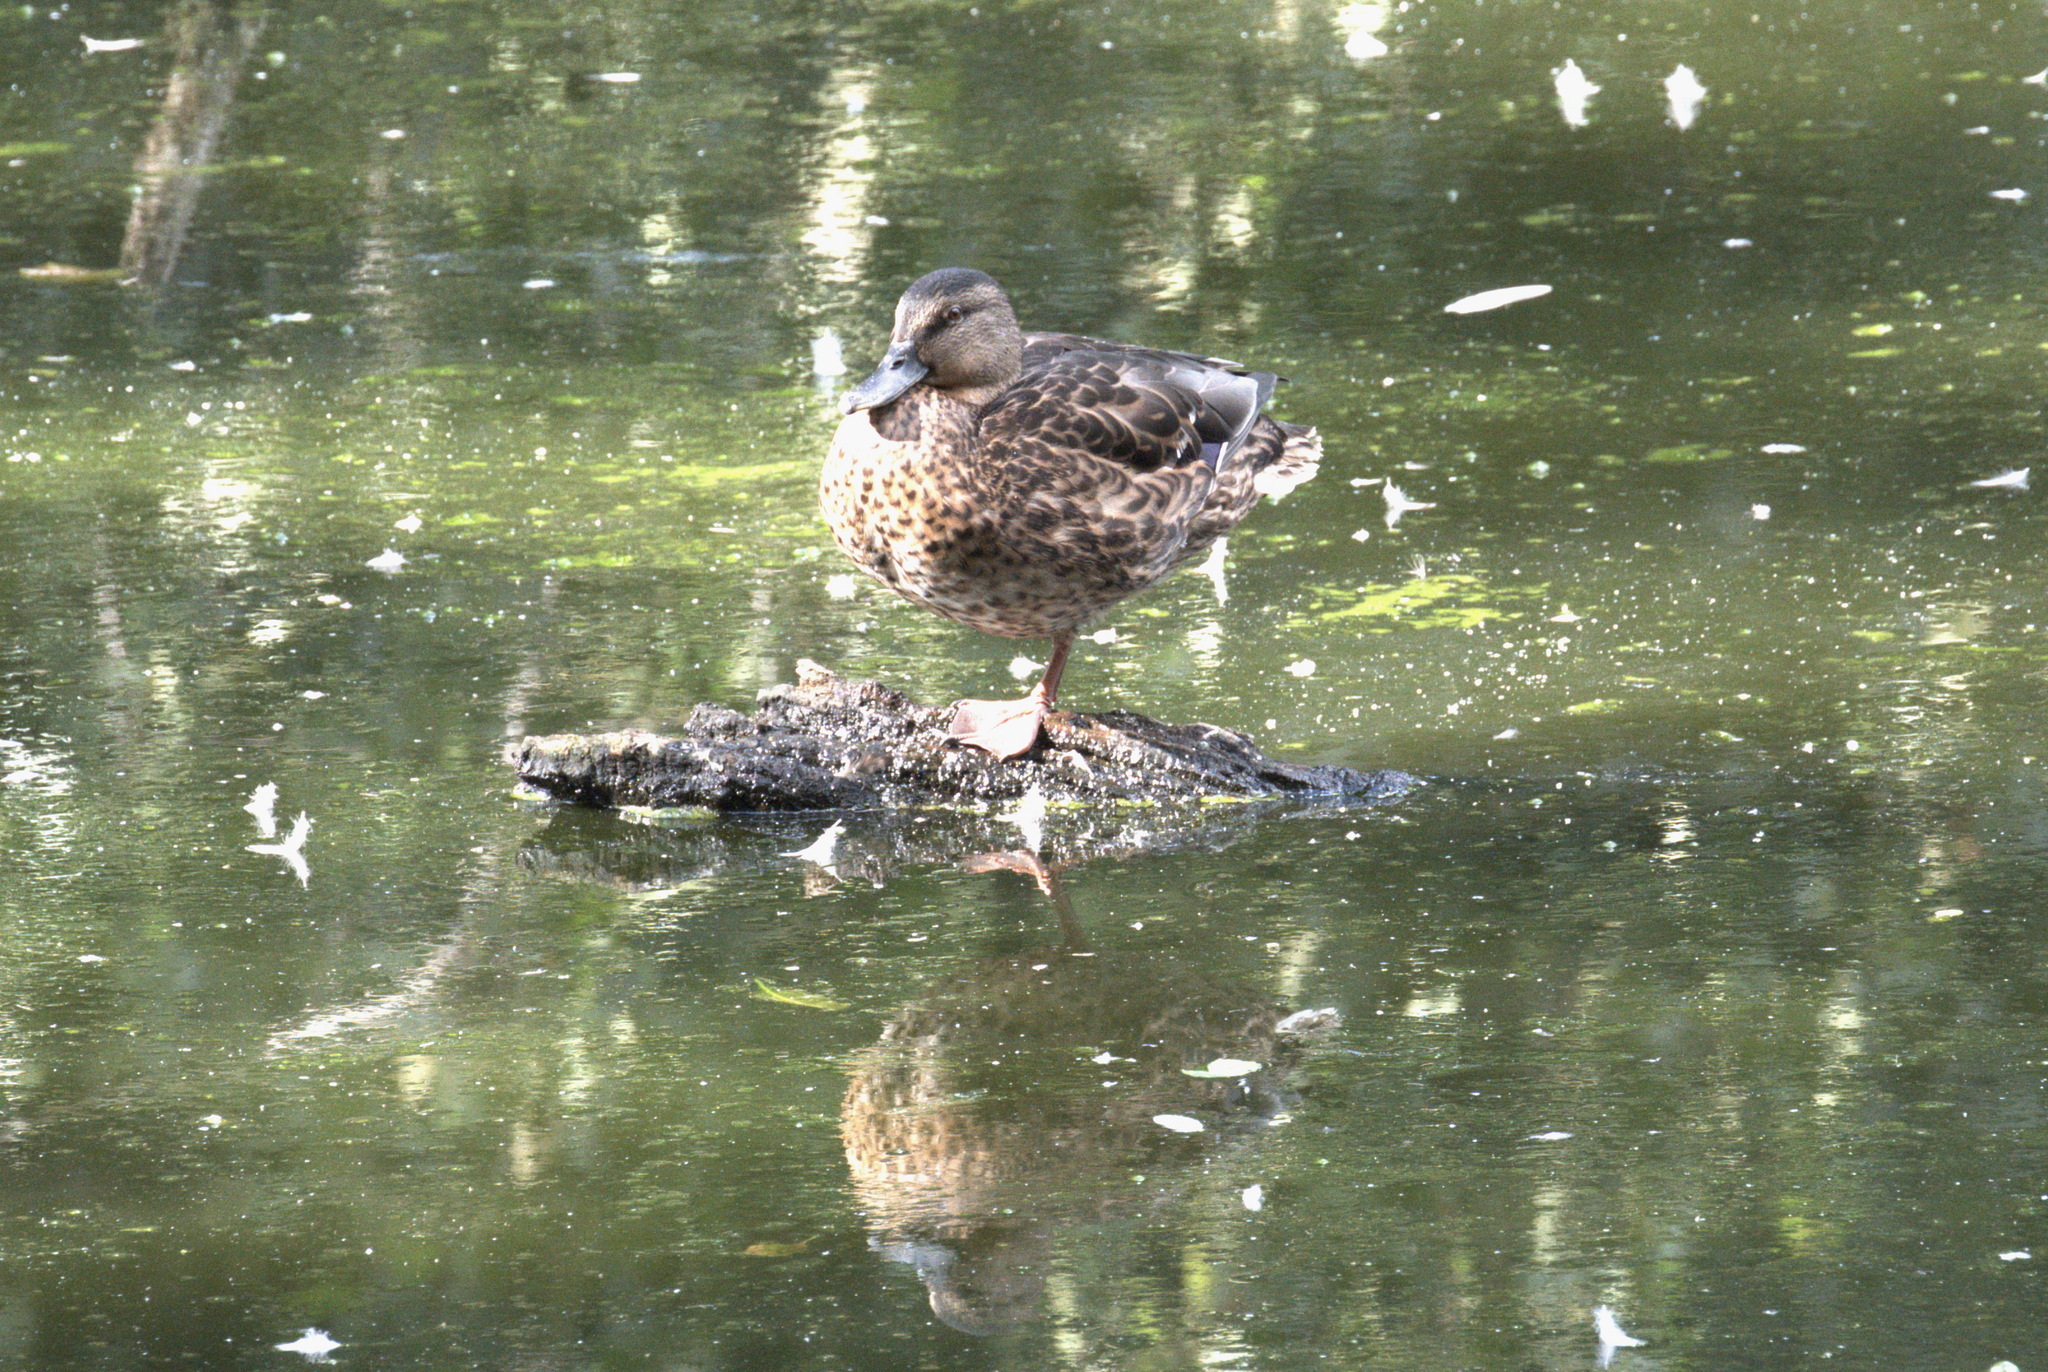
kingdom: Animalia
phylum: Chordata
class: Aves
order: Anseriformes
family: Anatidae
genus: Anas
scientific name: Anas platyrhynchos
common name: Mallard
